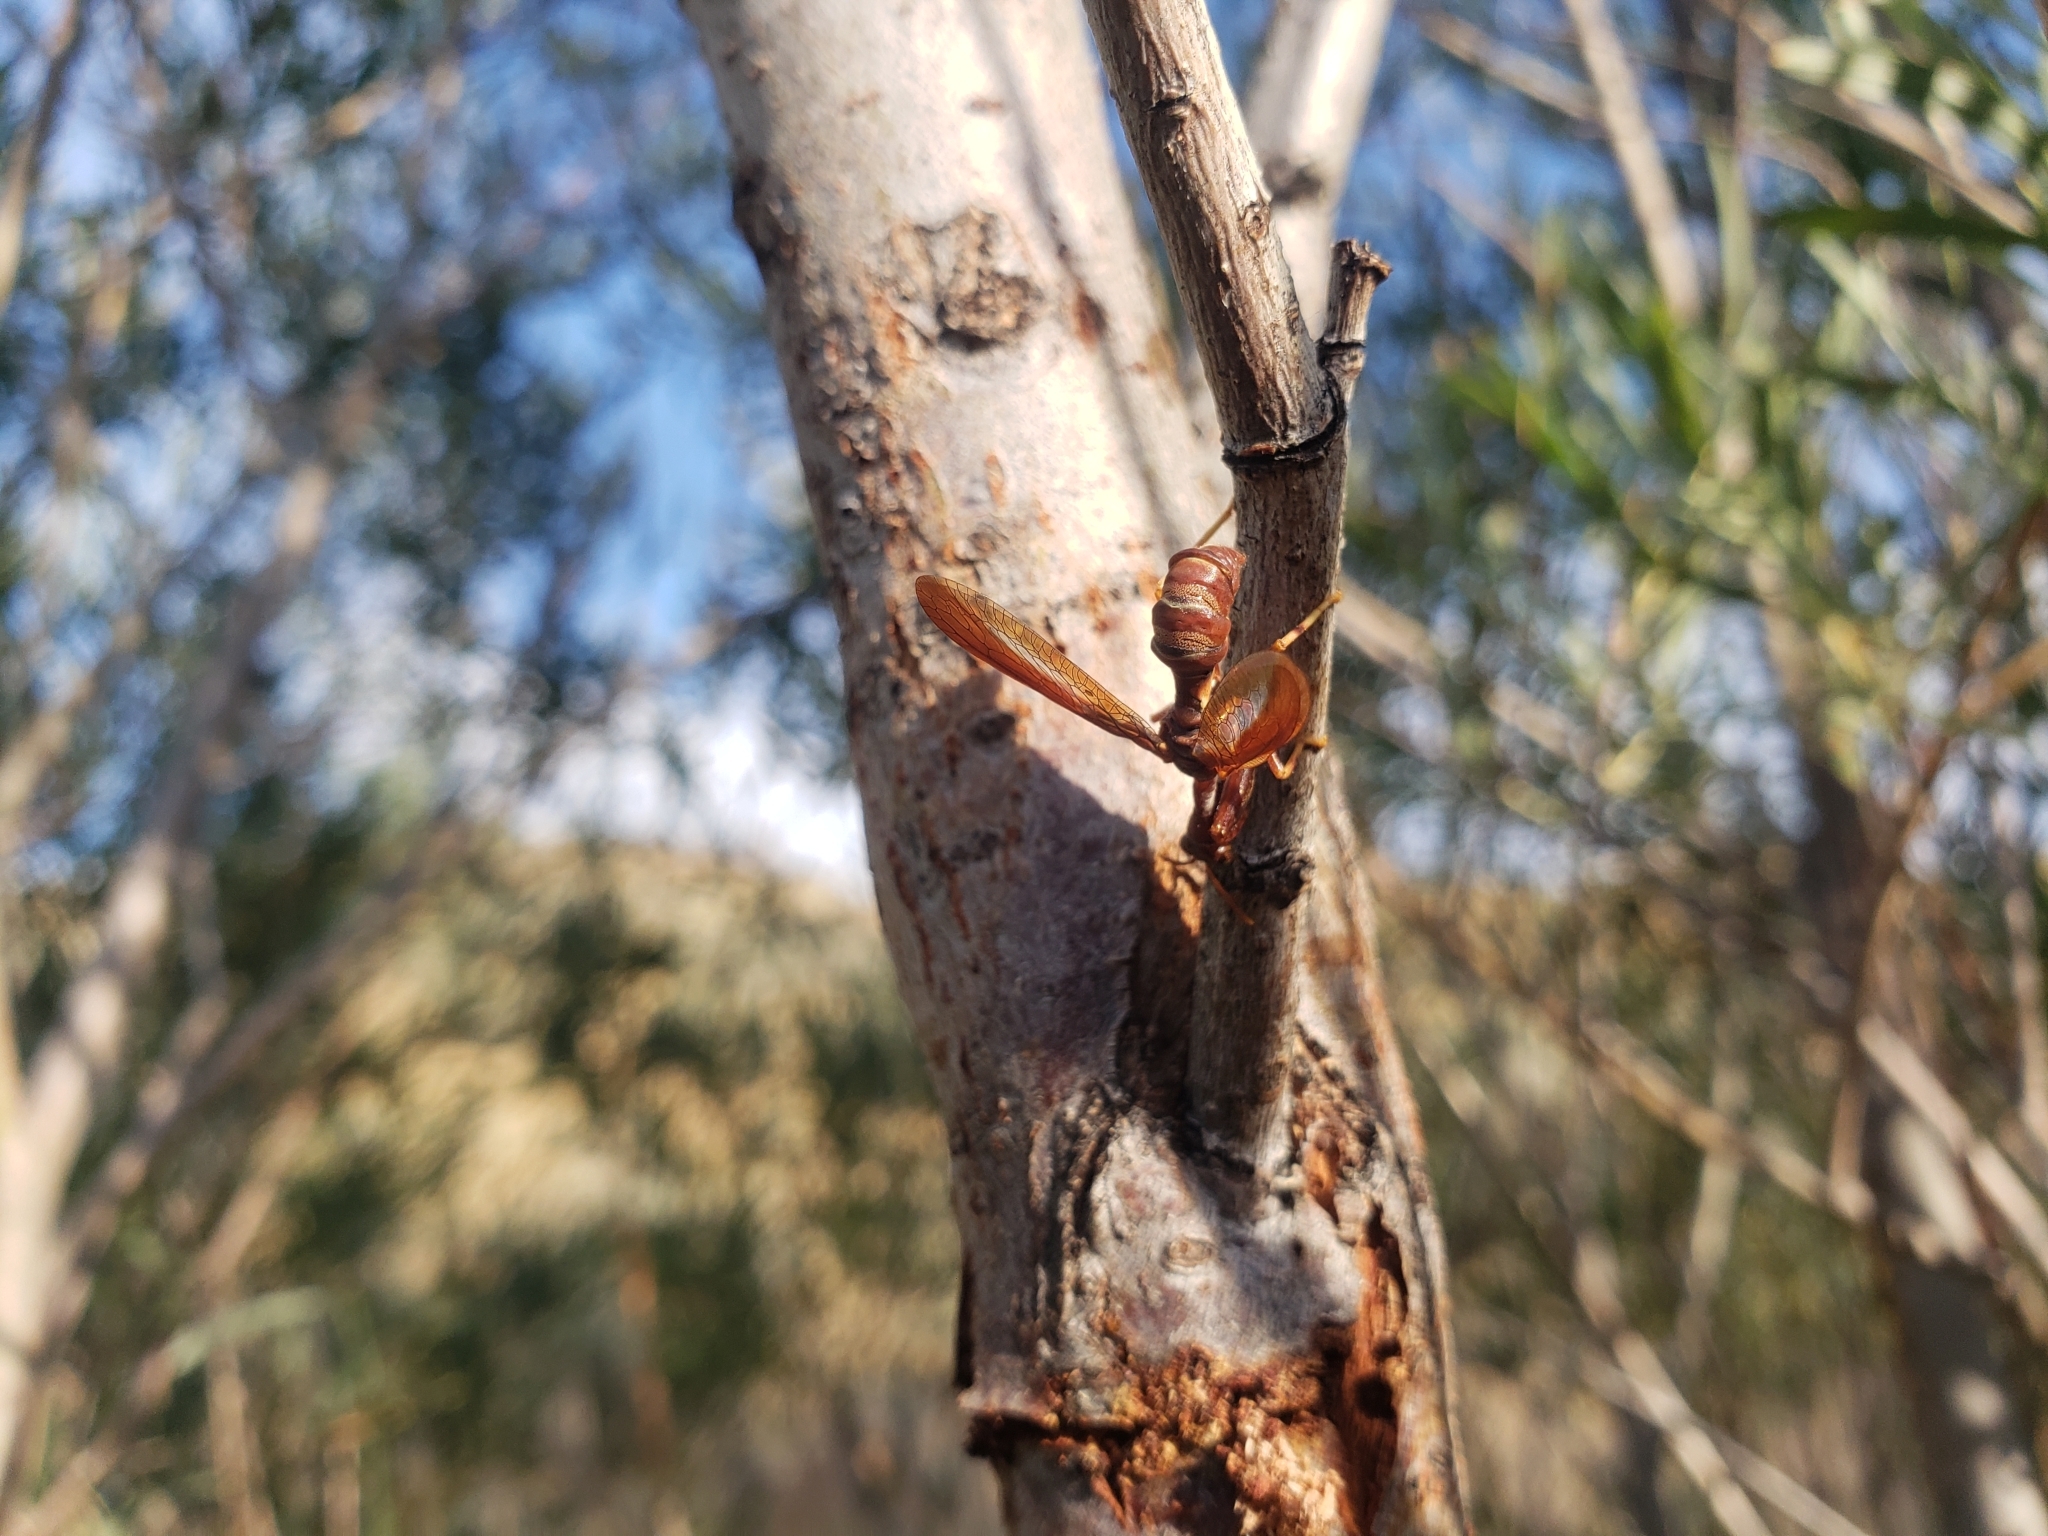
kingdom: Animalia
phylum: Arthropoda
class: Insecta
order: Neuroptera
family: Mantispidae
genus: Climaciella
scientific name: Climaciella brunnea
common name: Brown wasp mantidfly
